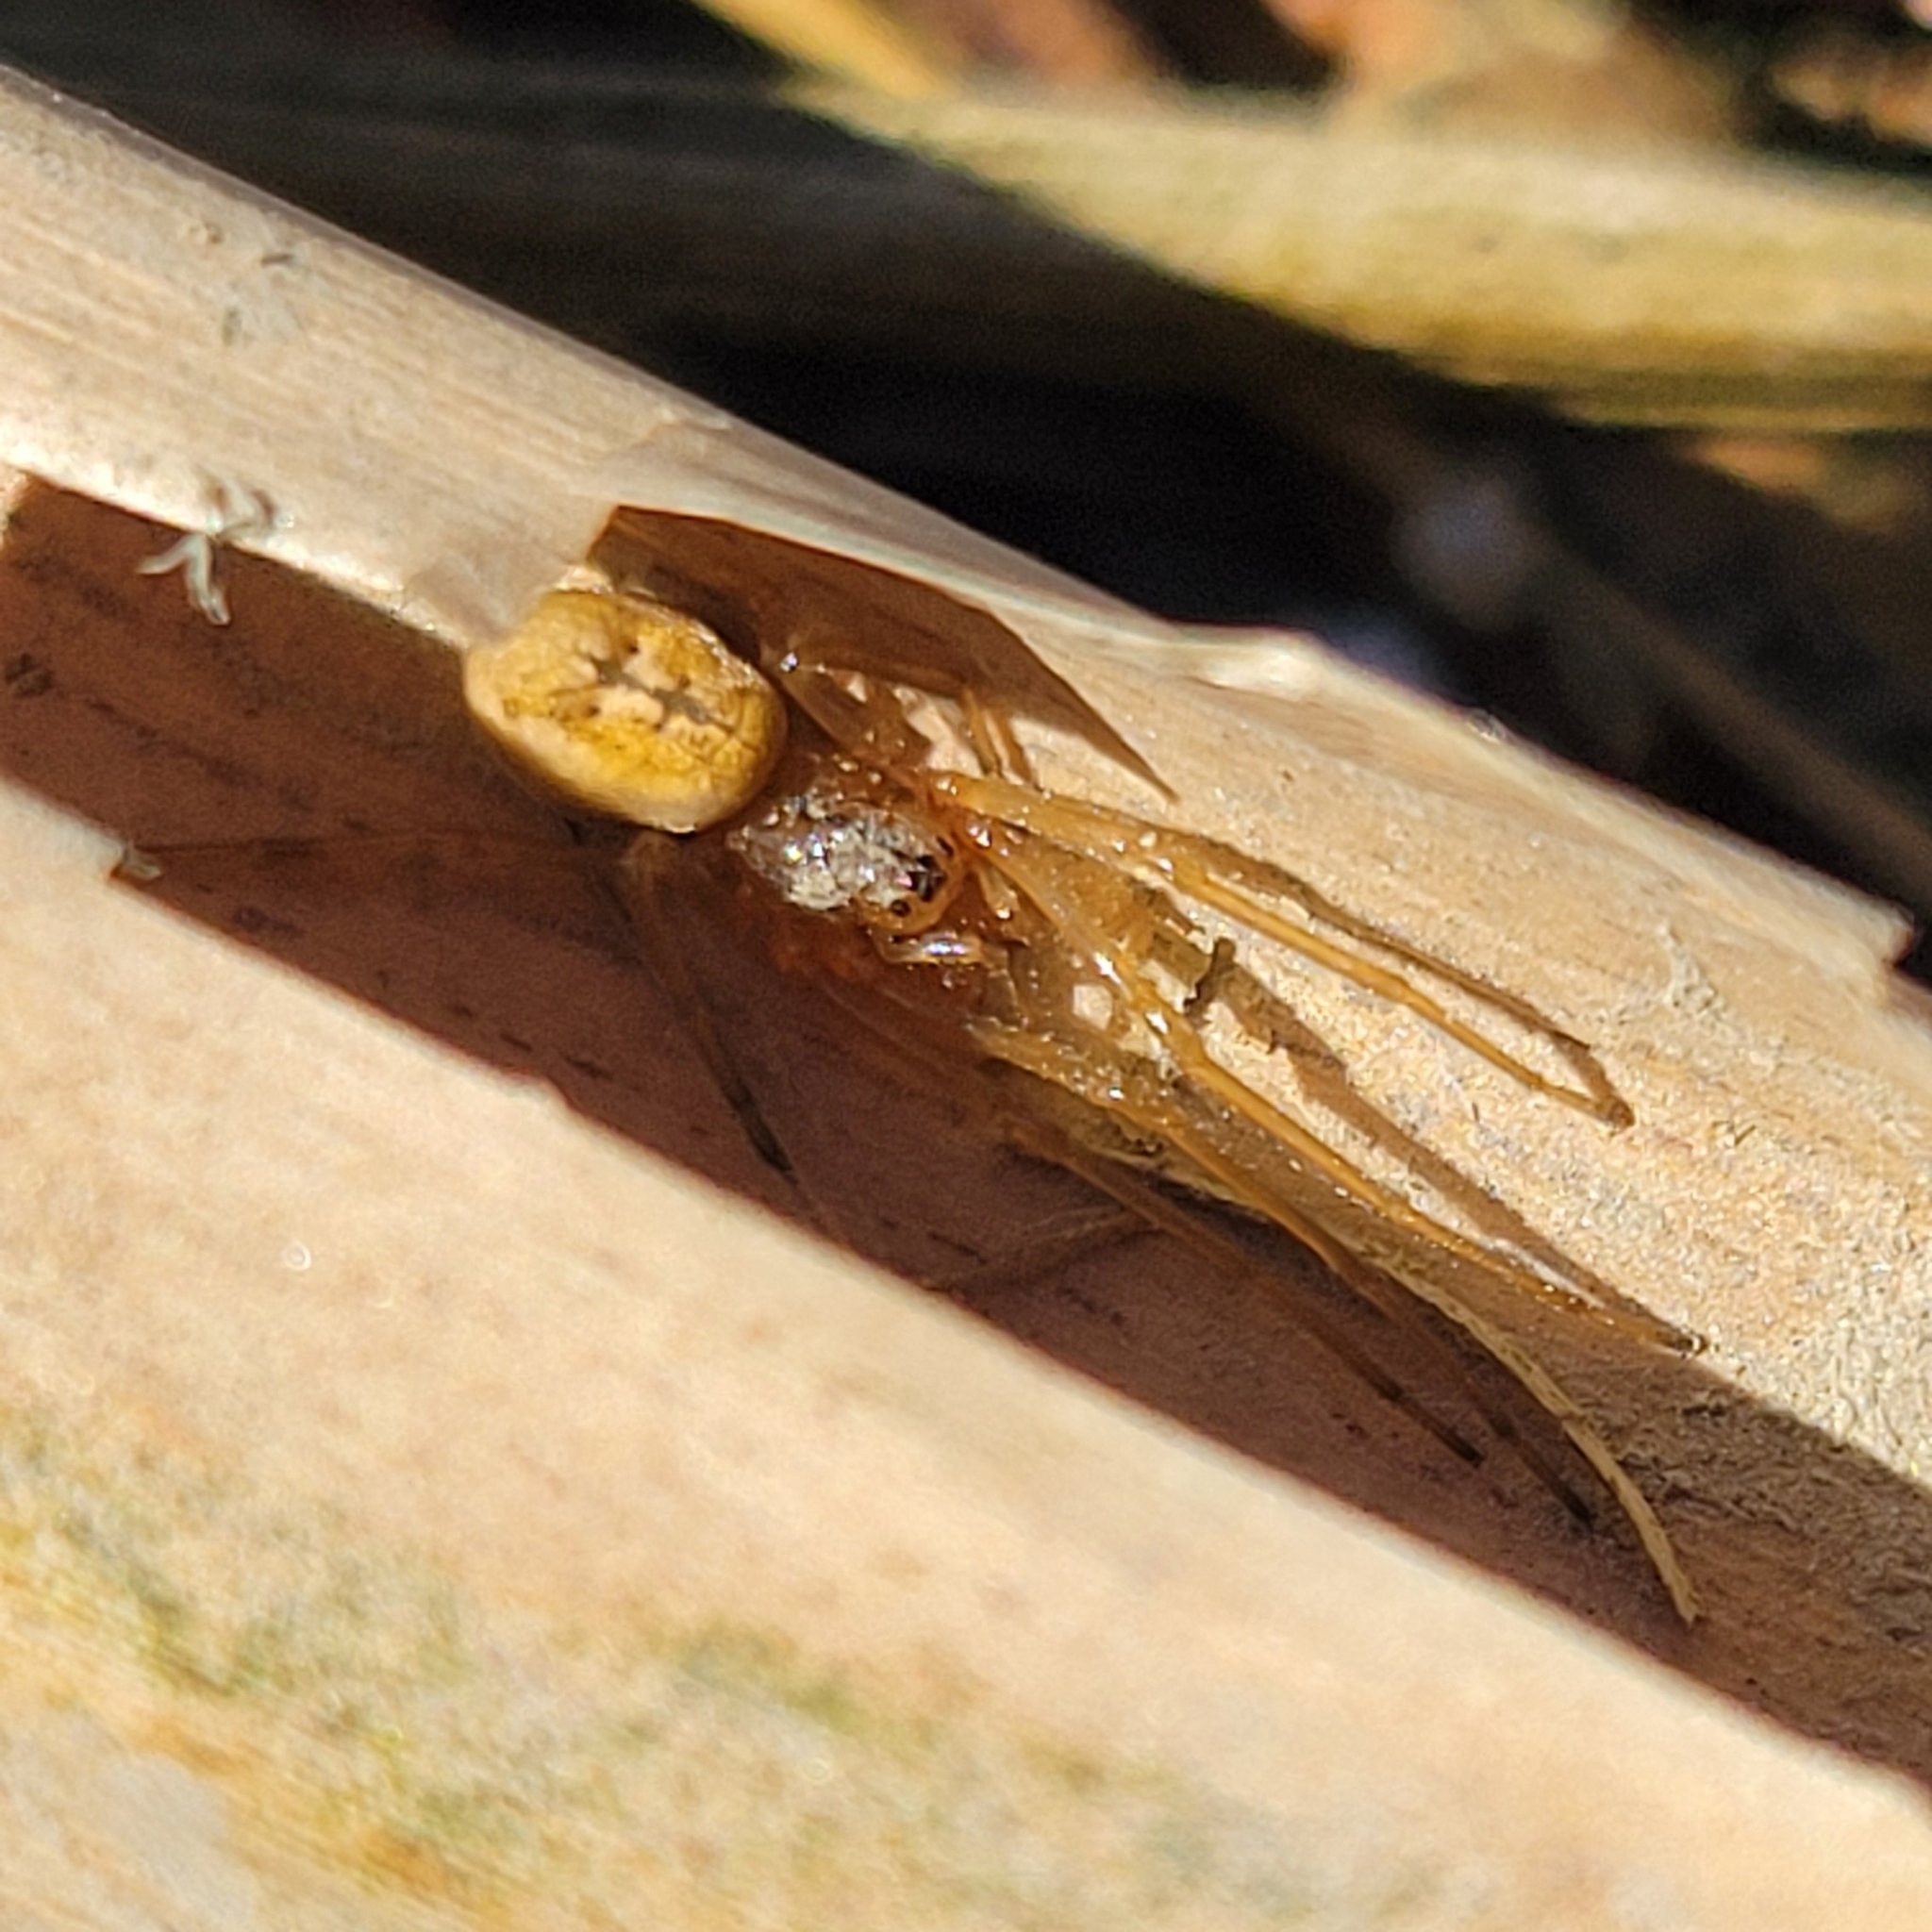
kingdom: Animalia
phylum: Arthropoda
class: Arachnida
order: Araneae
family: Tetragnathidae
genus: Metellina
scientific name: Metellina segmentata
